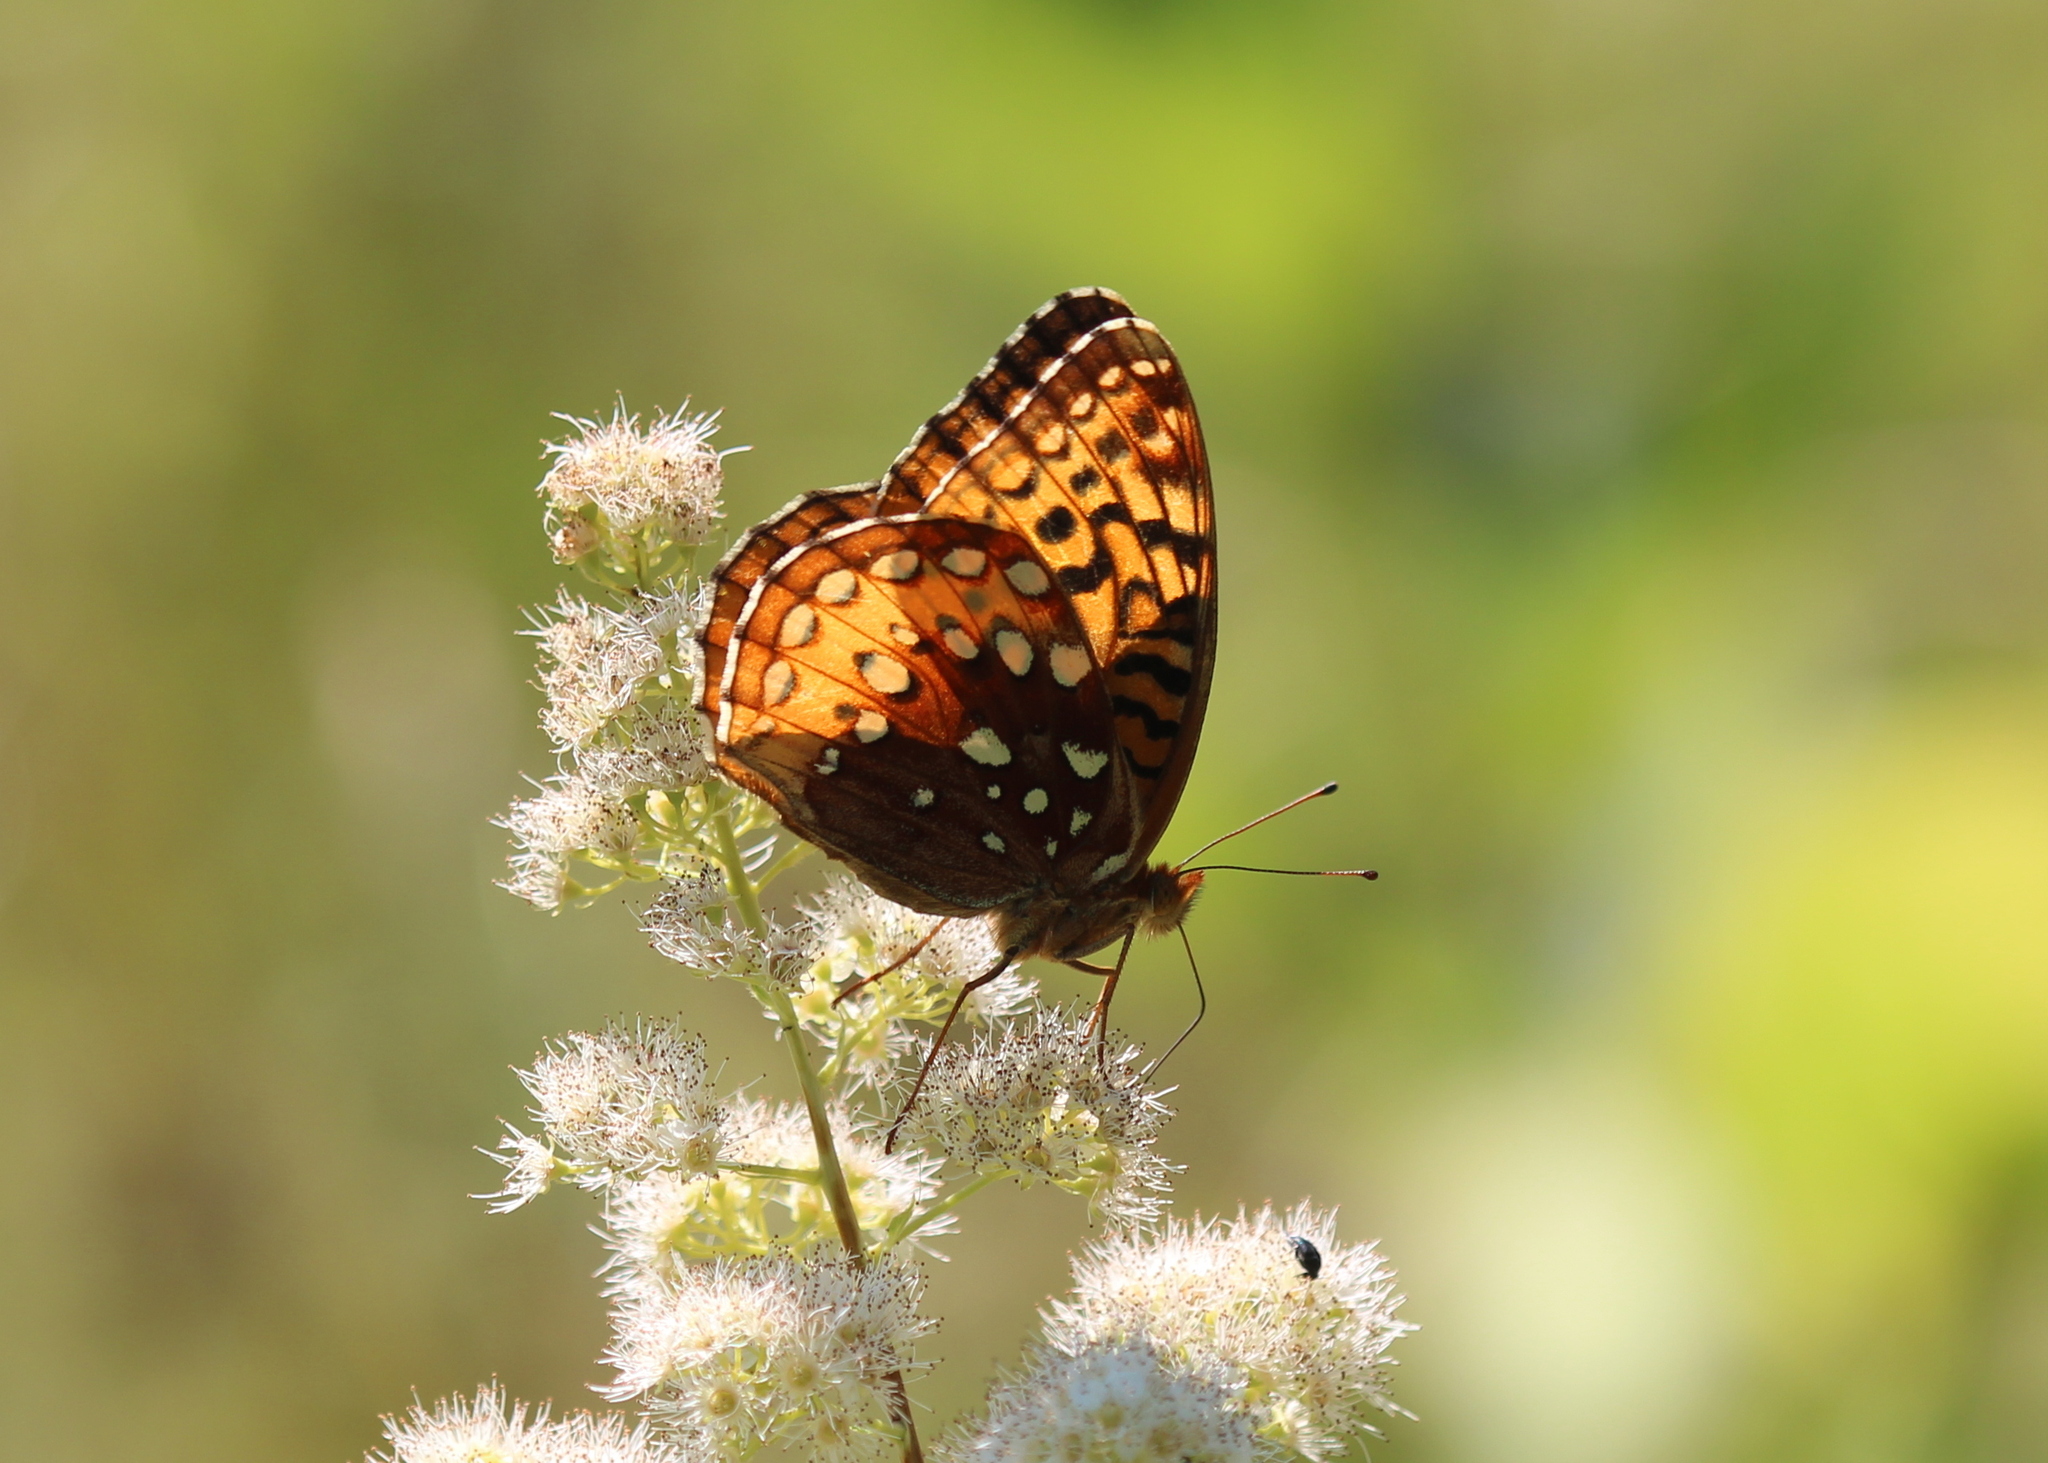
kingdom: Animalia
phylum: Arthropoda
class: Insecta
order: Lepidoptera
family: Nymphalidae
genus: Speyeria
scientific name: Speyeria cybele
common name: Great spangled fritillary
